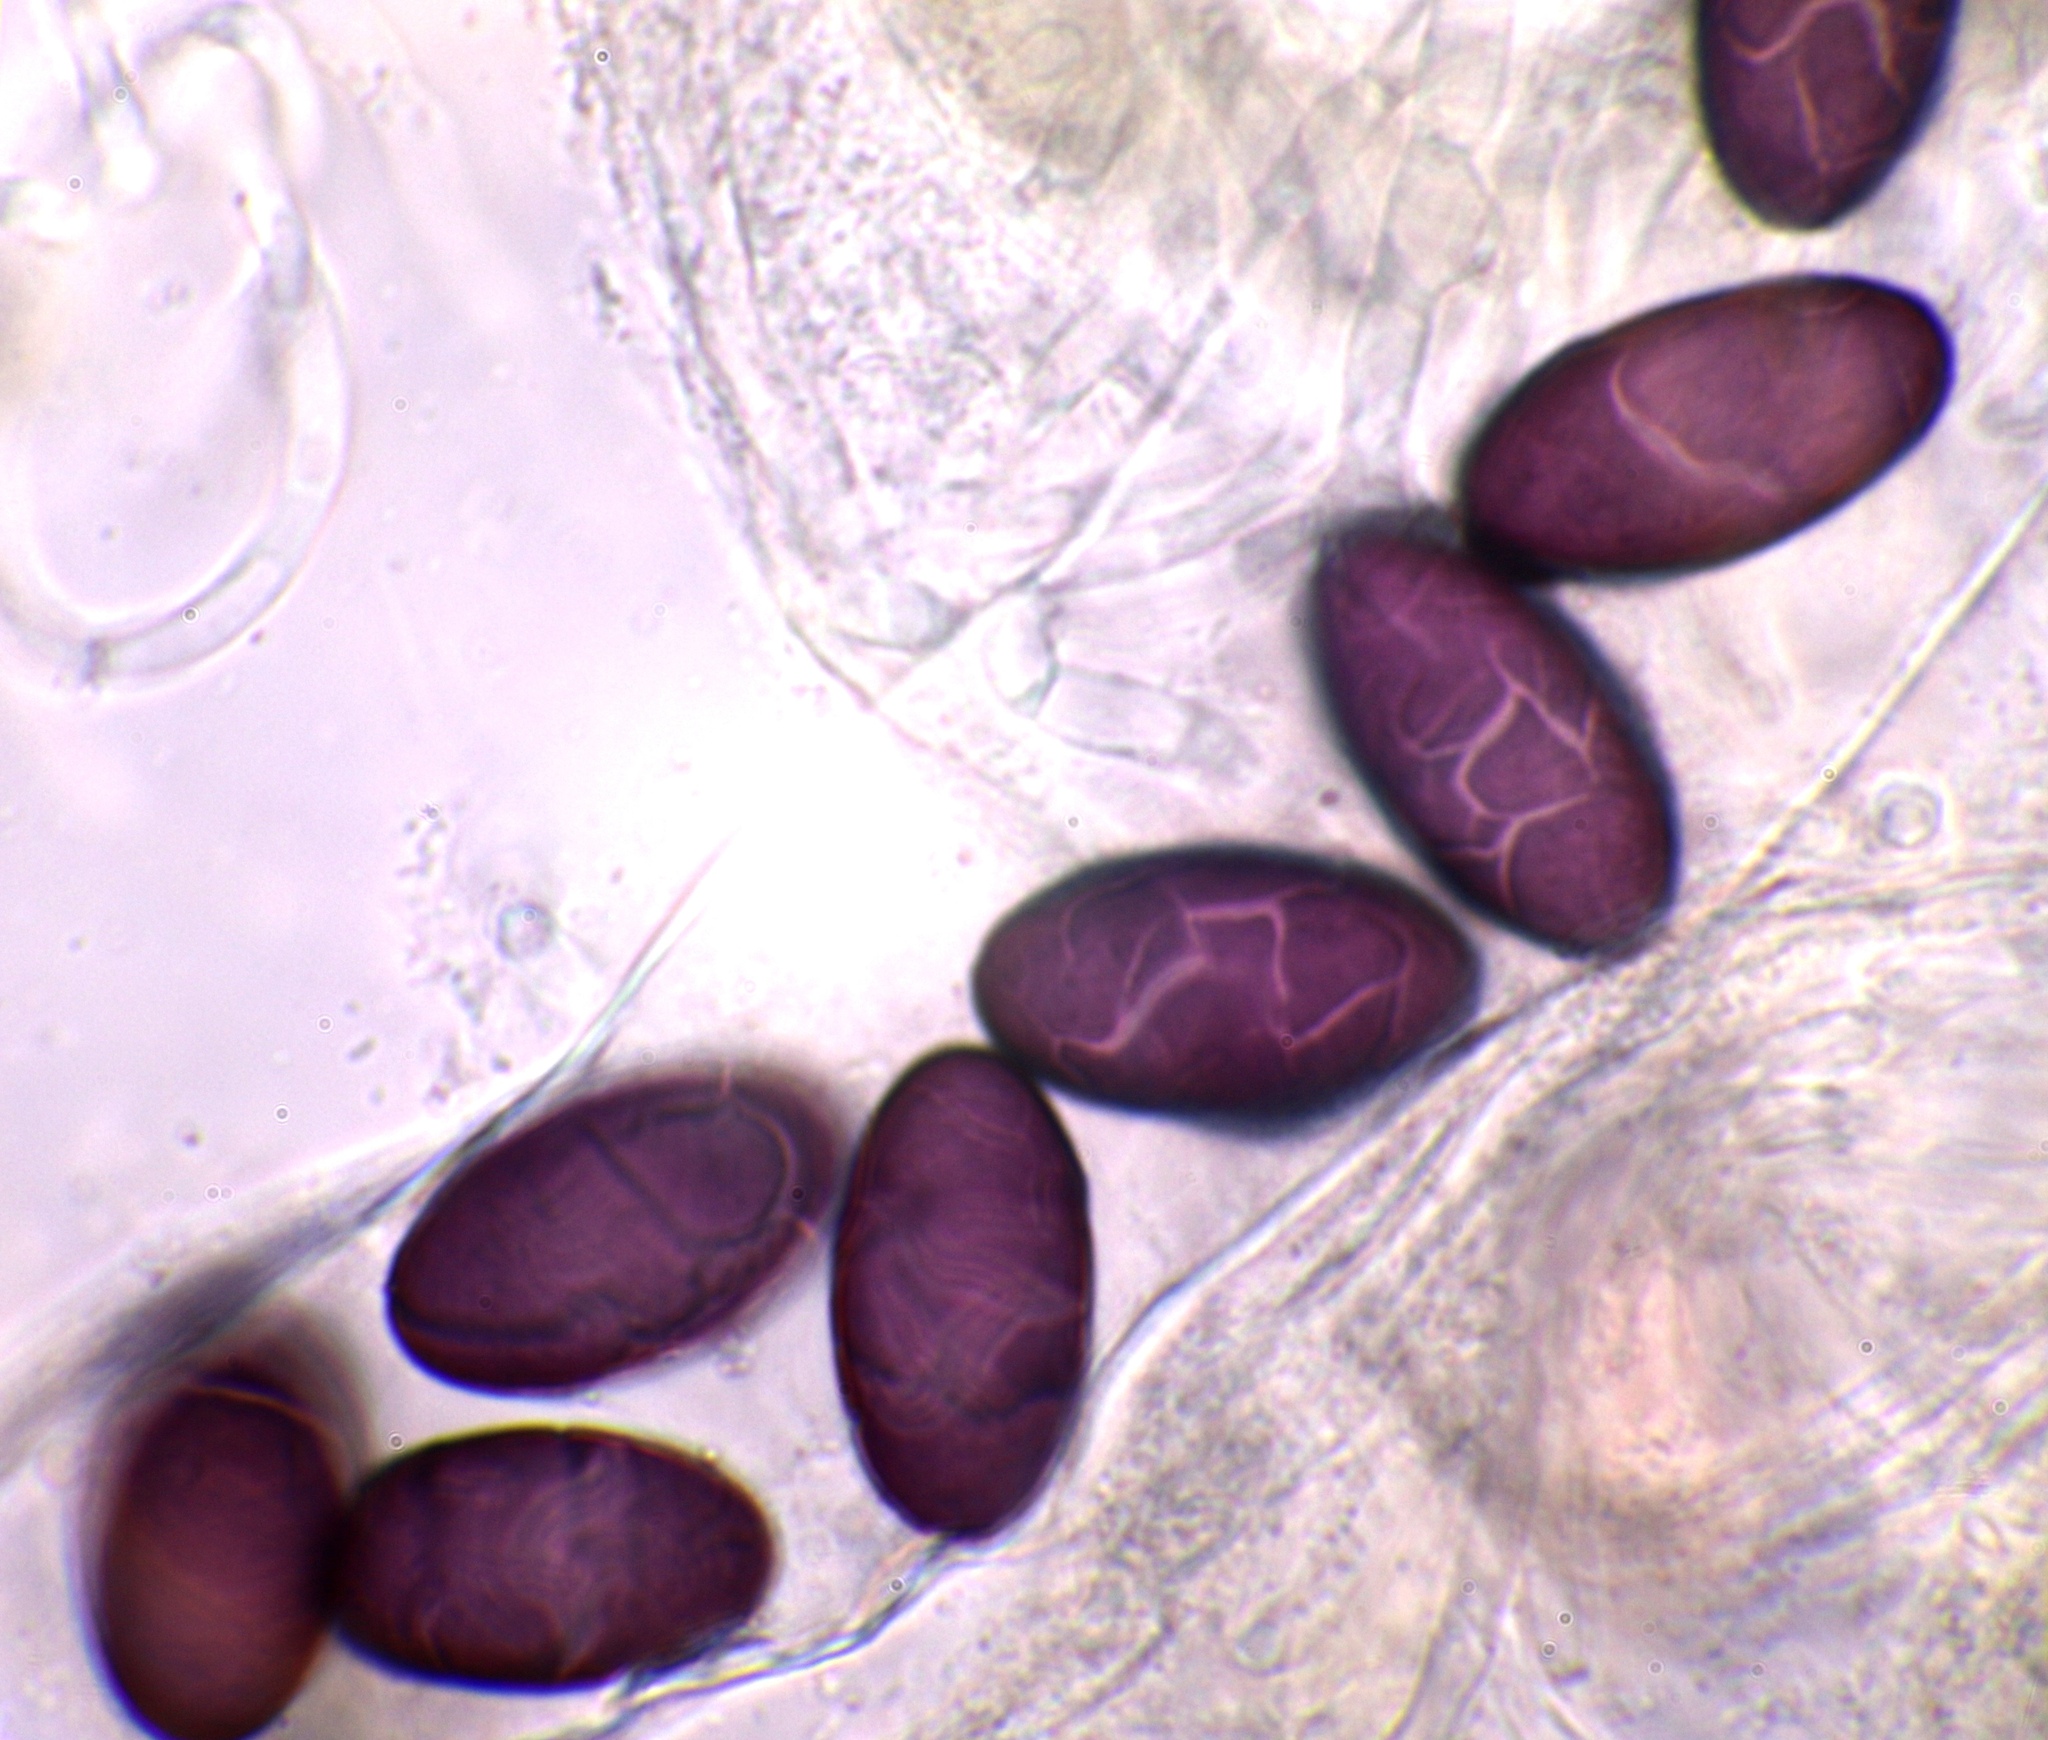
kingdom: Fungi
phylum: Ascomycota
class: Pezizomycetes
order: Pezizales
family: Ascobolaceae
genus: Ascobolus
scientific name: Ascobolus stictoideus
